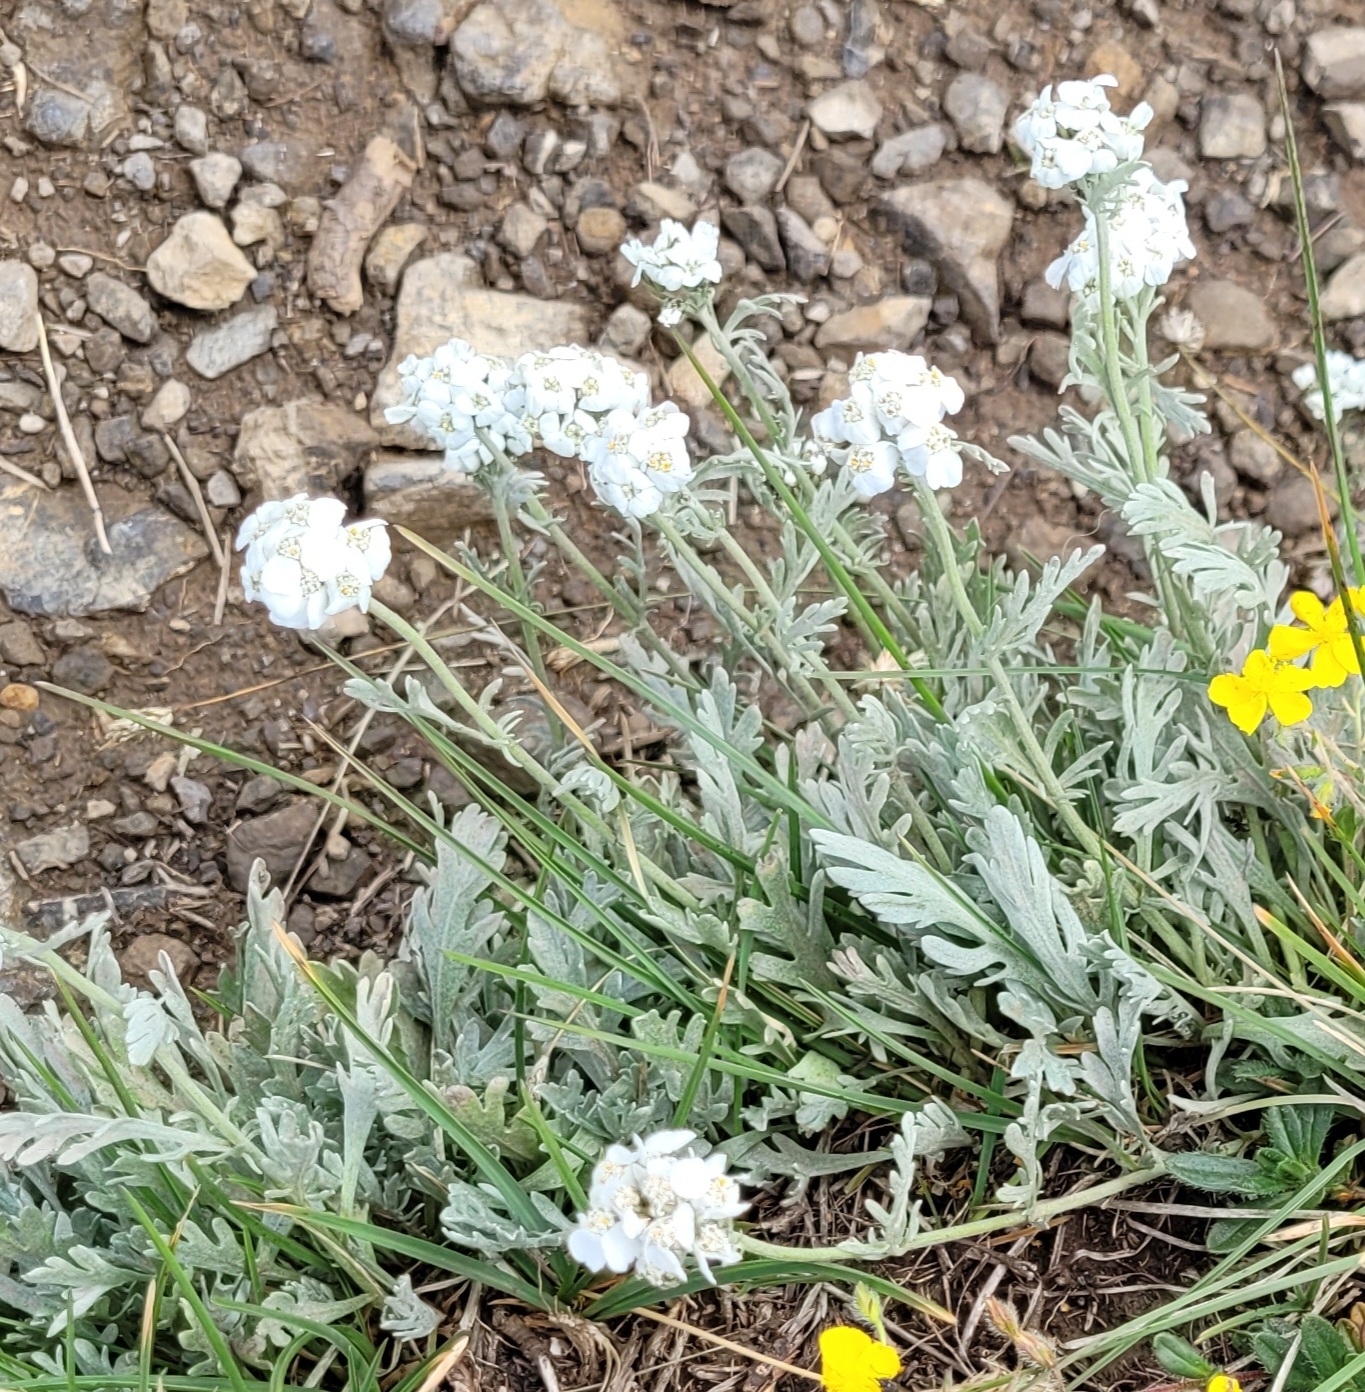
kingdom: Plantae
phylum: Tracheophyta
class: Magnoliopsida
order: Asterales
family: Asteraceae
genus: Achillea
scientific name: Achillea clavennae
